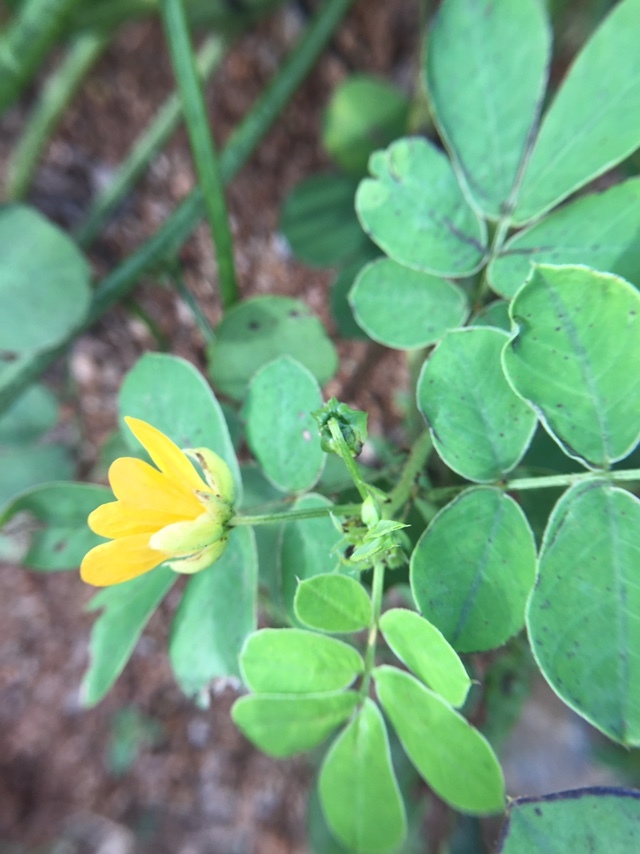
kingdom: Plantae
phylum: Tracheophyta
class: Magnoliopsida
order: Fabales
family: Fabaceae
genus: Senna
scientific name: Senna obtusifolia
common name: Java-bean
